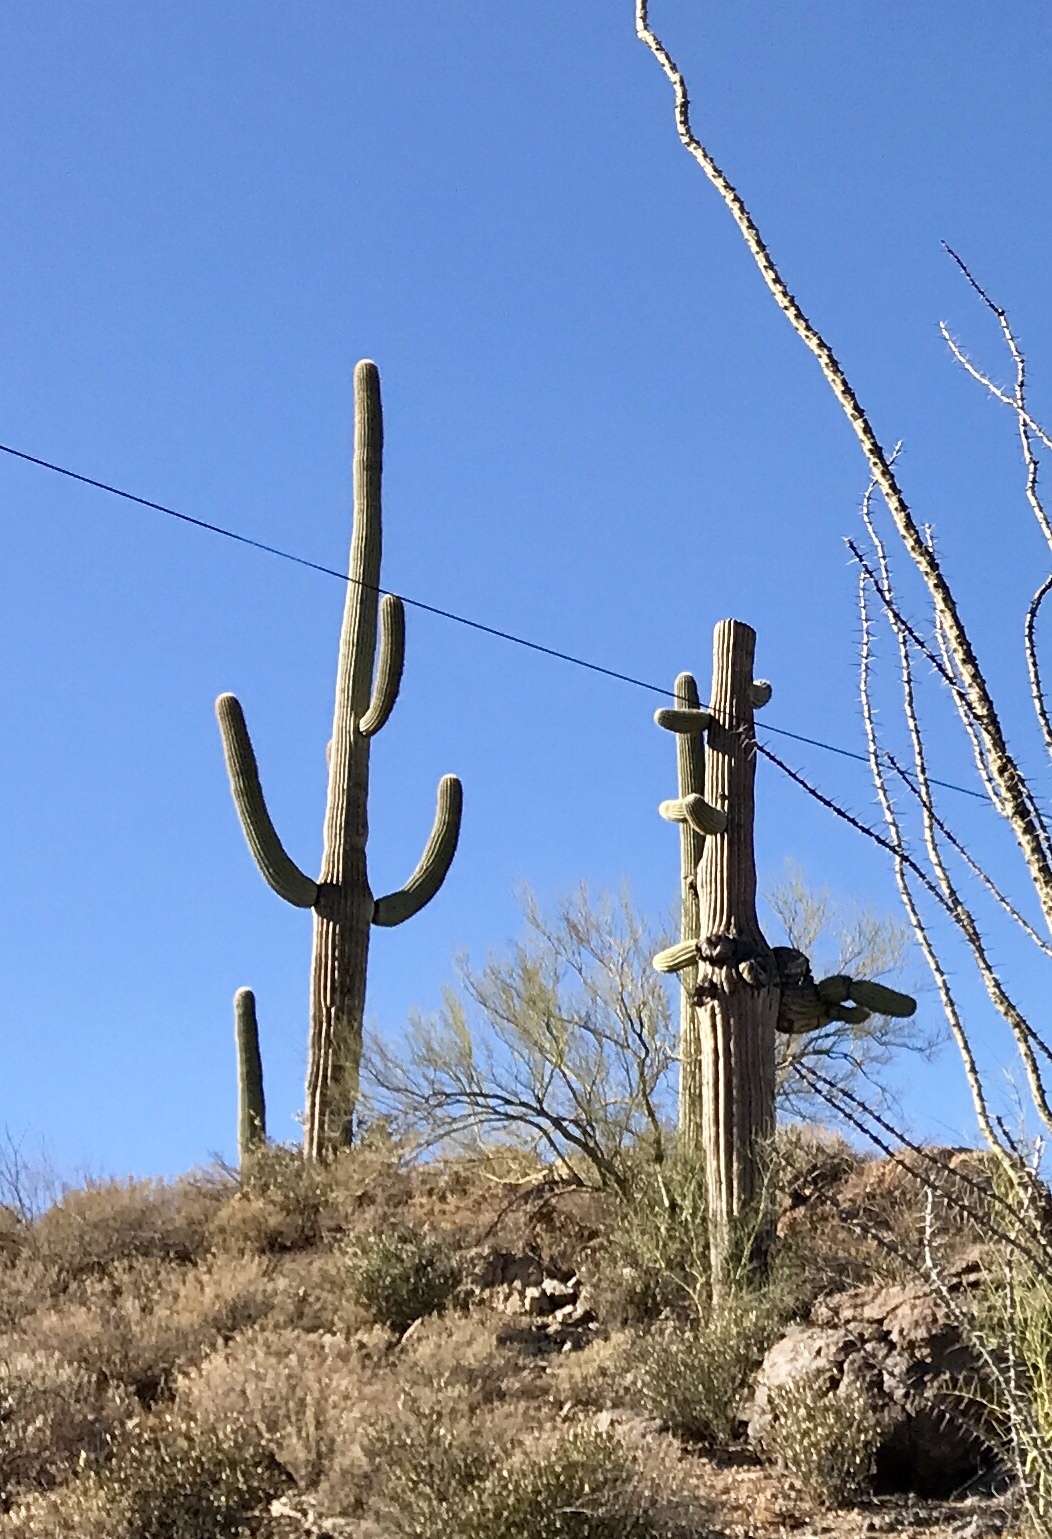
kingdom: Plantae
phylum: Tracheophyta
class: Magnoliopsida
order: Caryophyllales
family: Cactaceae
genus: Carnegiea
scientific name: Carnegiea gigantea
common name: Saguaro
